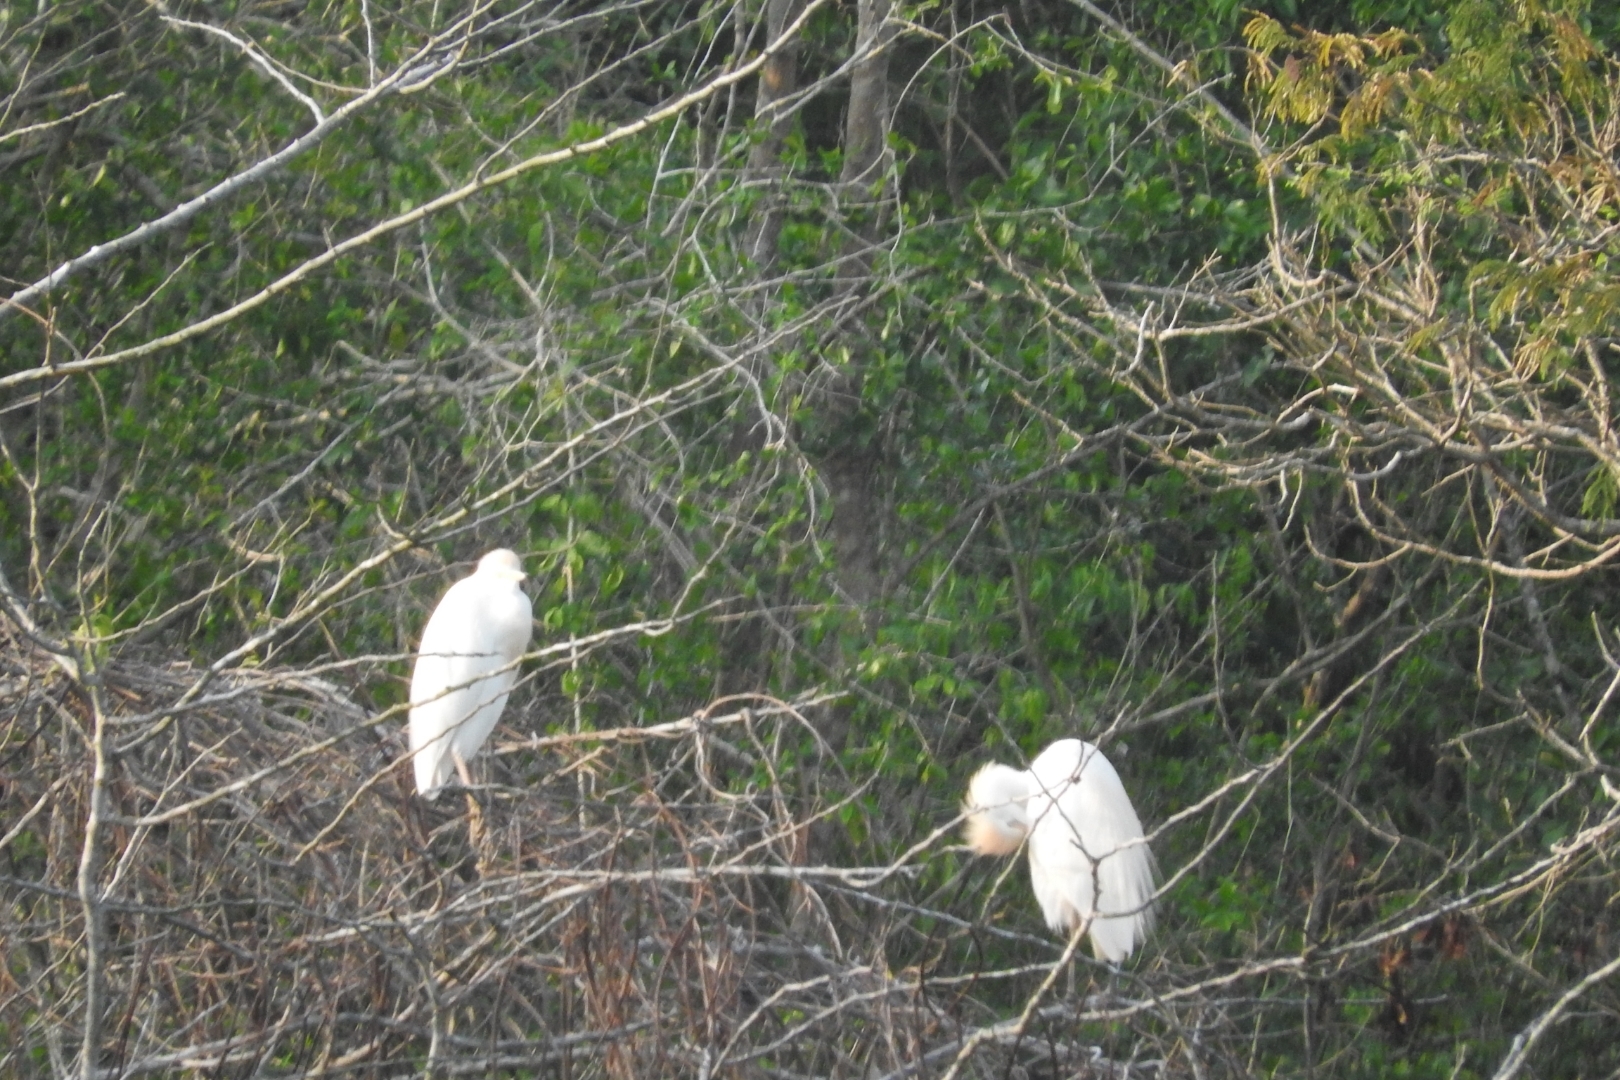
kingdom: Animalia
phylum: Chordata
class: Aves
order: Pelecaniformes
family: Ardeidae
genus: Bubulcus
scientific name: Bubulcus ibis
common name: Cattle egret
